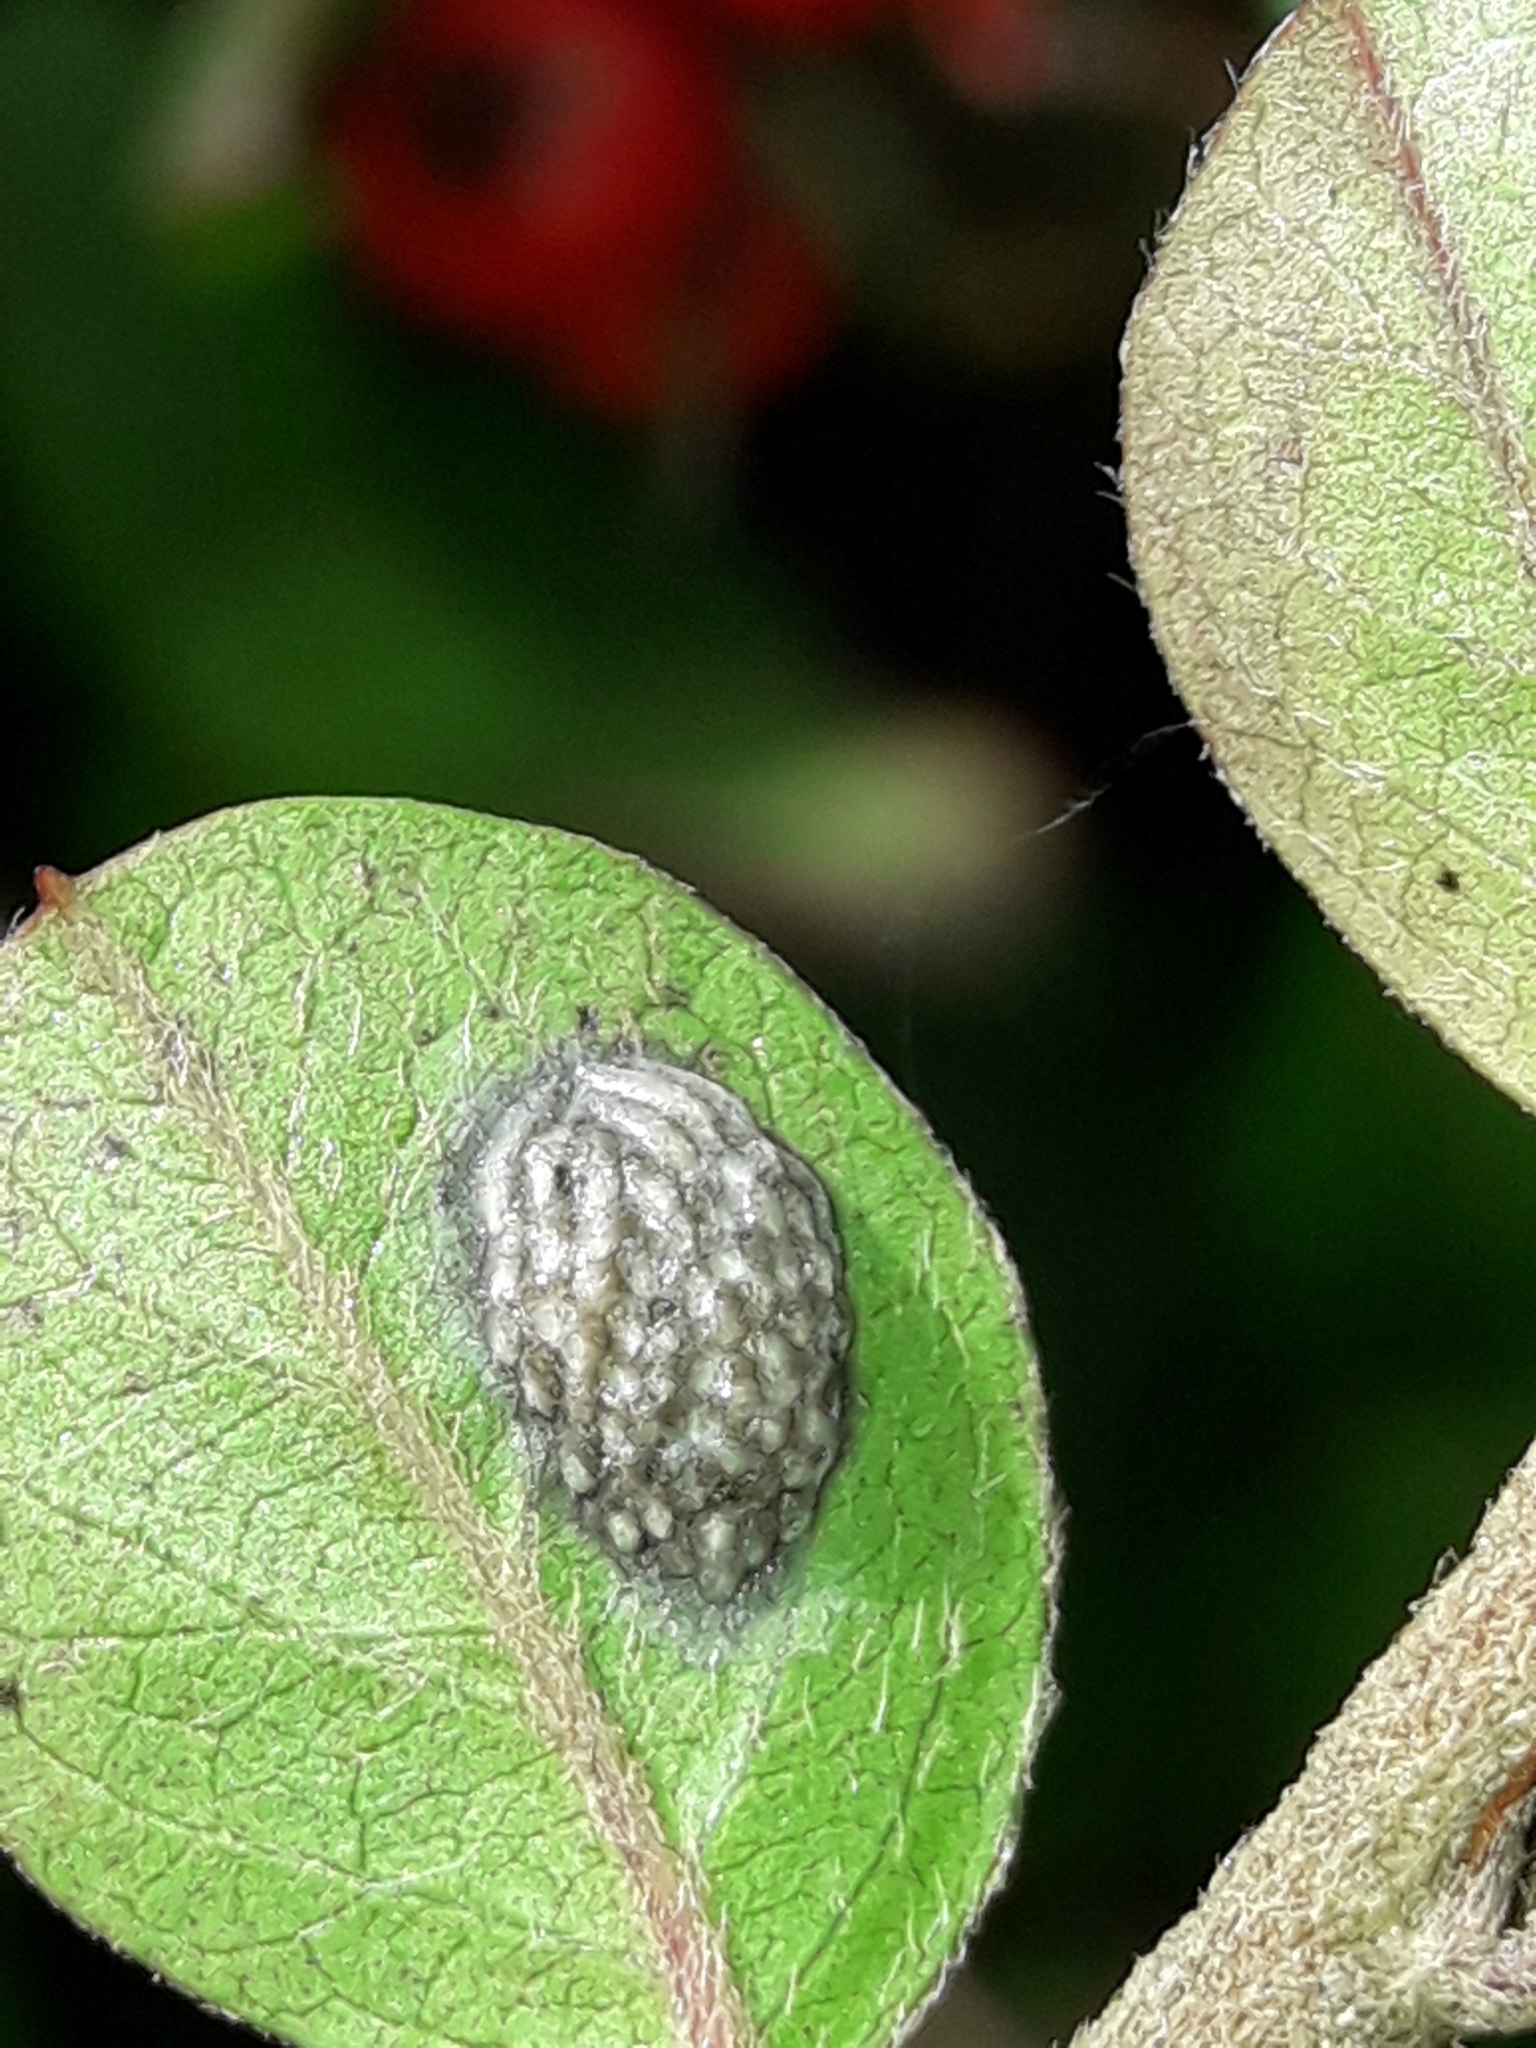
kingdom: Animalia
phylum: Arthropoda
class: Insecta
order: Hemiptera
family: Flatidae
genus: Siphanta
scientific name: Siphanta acuta
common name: Torpedo bug
